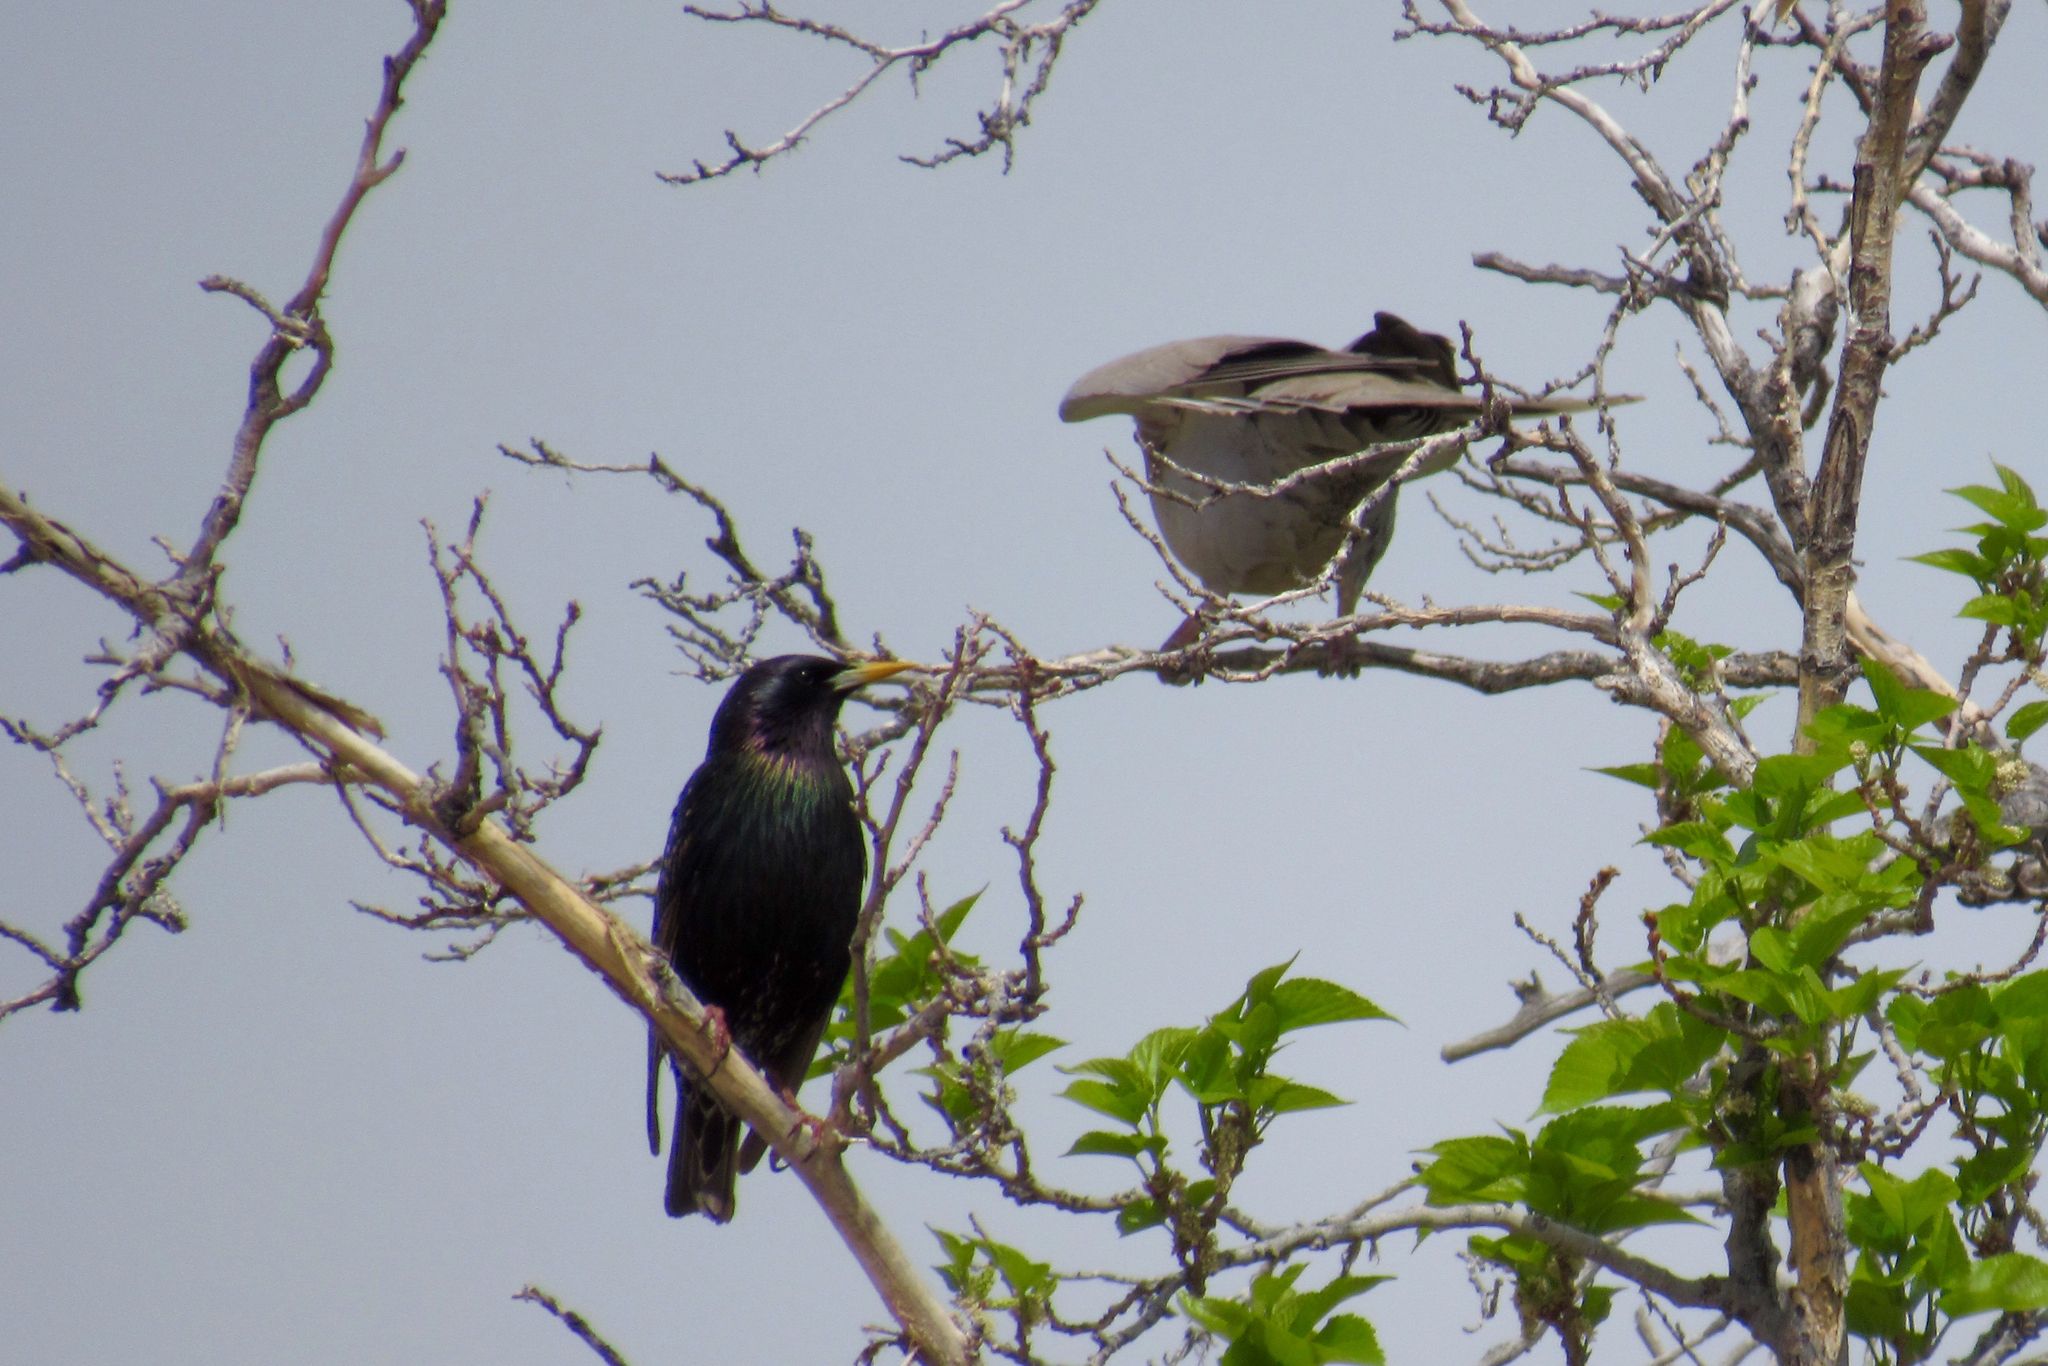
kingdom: Animalia
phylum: Chordata
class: Aves
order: Passeriformes
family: Sturnidae
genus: Sturnus
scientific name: Sturnus vulgaris
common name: Common starling
